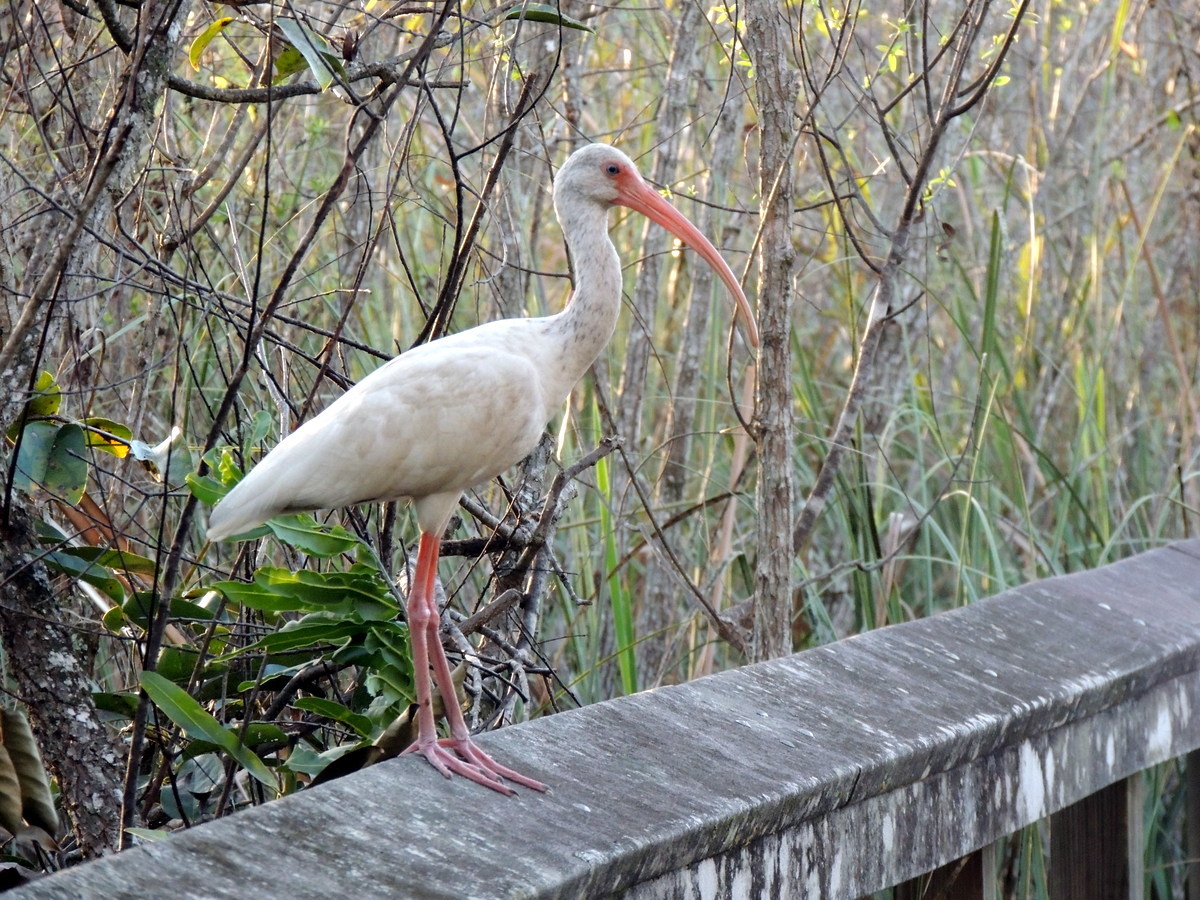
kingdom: Animalia
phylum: Chordata
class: Aves
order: Pelecaniformes
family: Threskiornithidae
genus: Eudocimus
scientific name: Eudocimus albus
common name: White ibis
